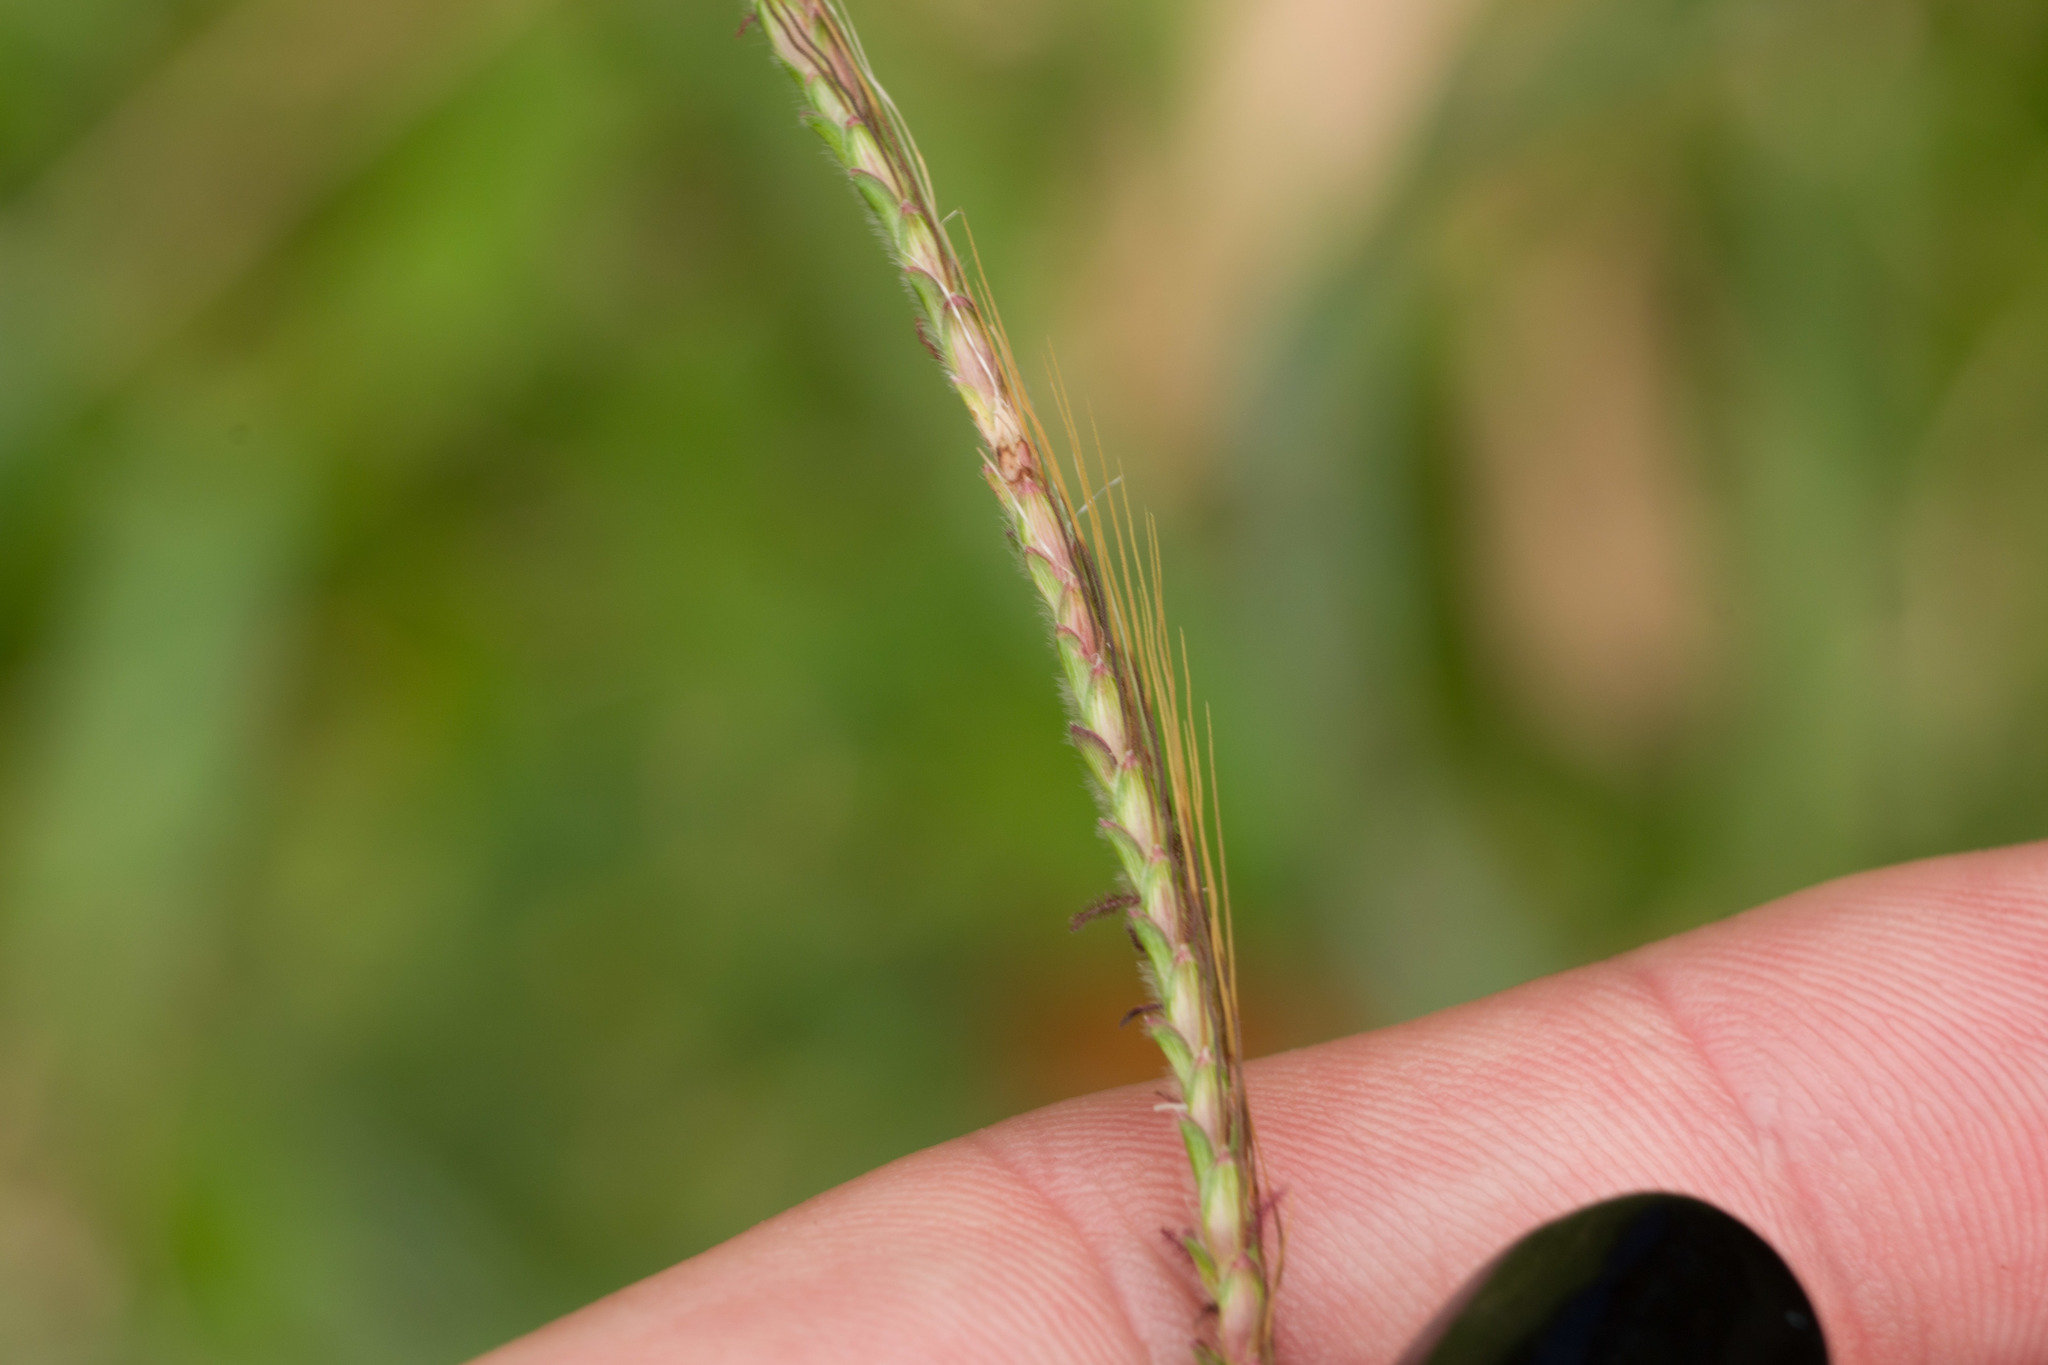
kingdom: Plantae
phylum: Tracheophyta
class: Liliopsida
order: Poales
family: Poaceae
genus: Dichanthium
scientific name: Dichanthium aristatum
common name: Angleton bluestem
